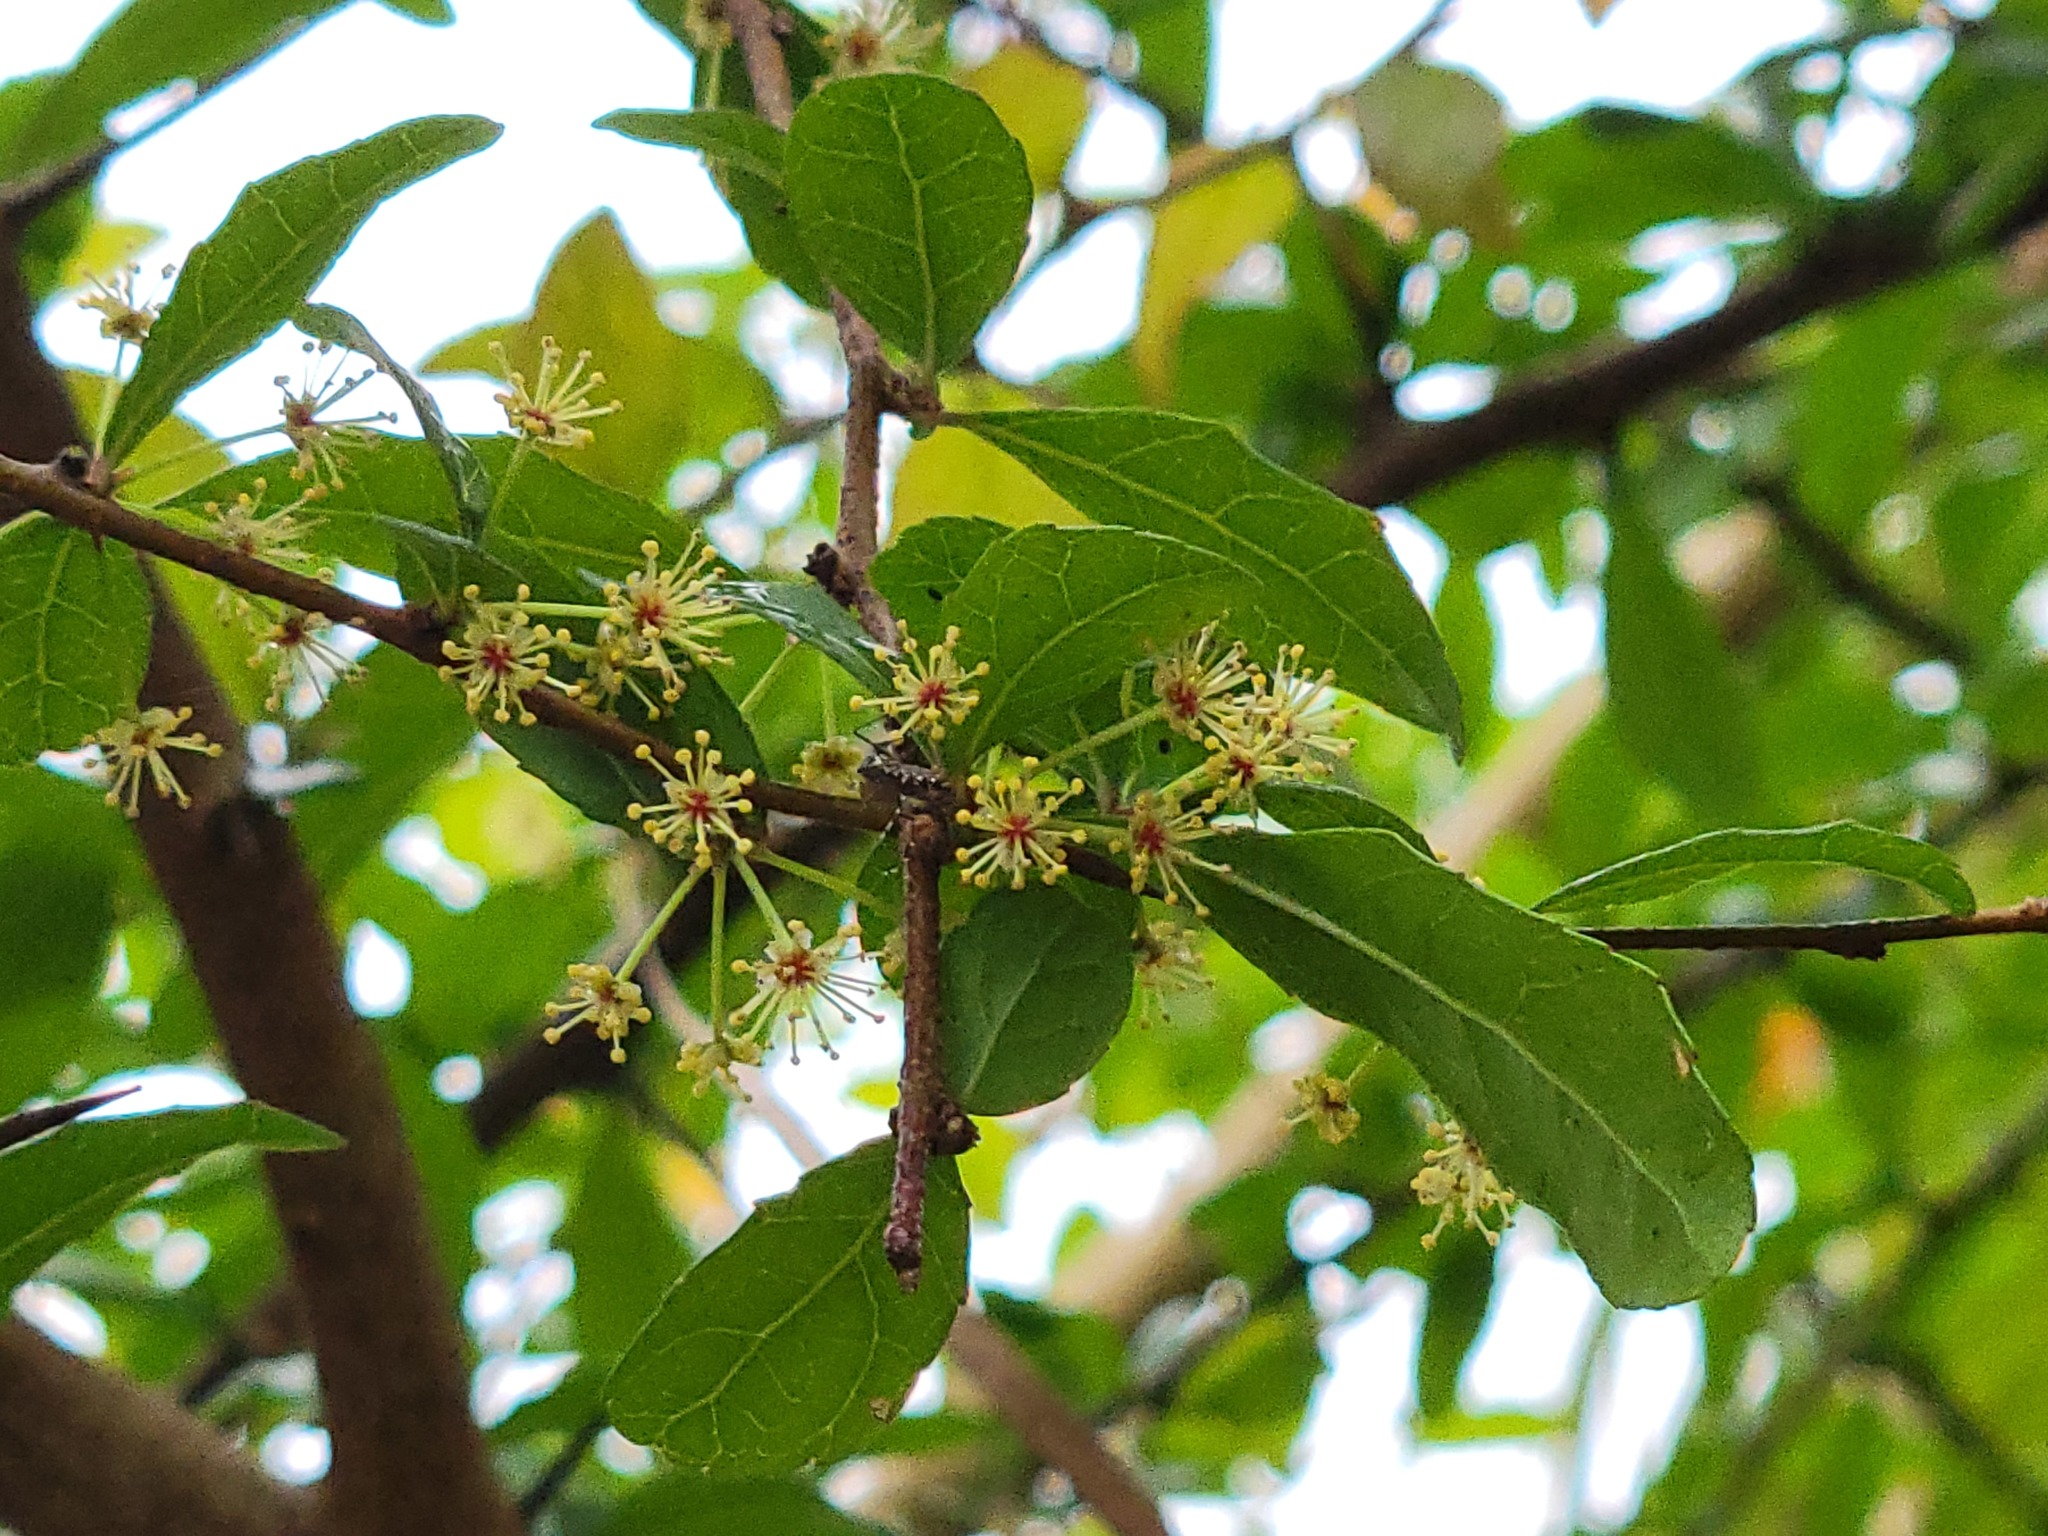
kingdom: Plantae
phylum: Tracheophyta
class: Magnoliopsida
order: Malpighiales
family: Salicaceae
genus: Xylosma
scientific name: Xylosma flexuosa
